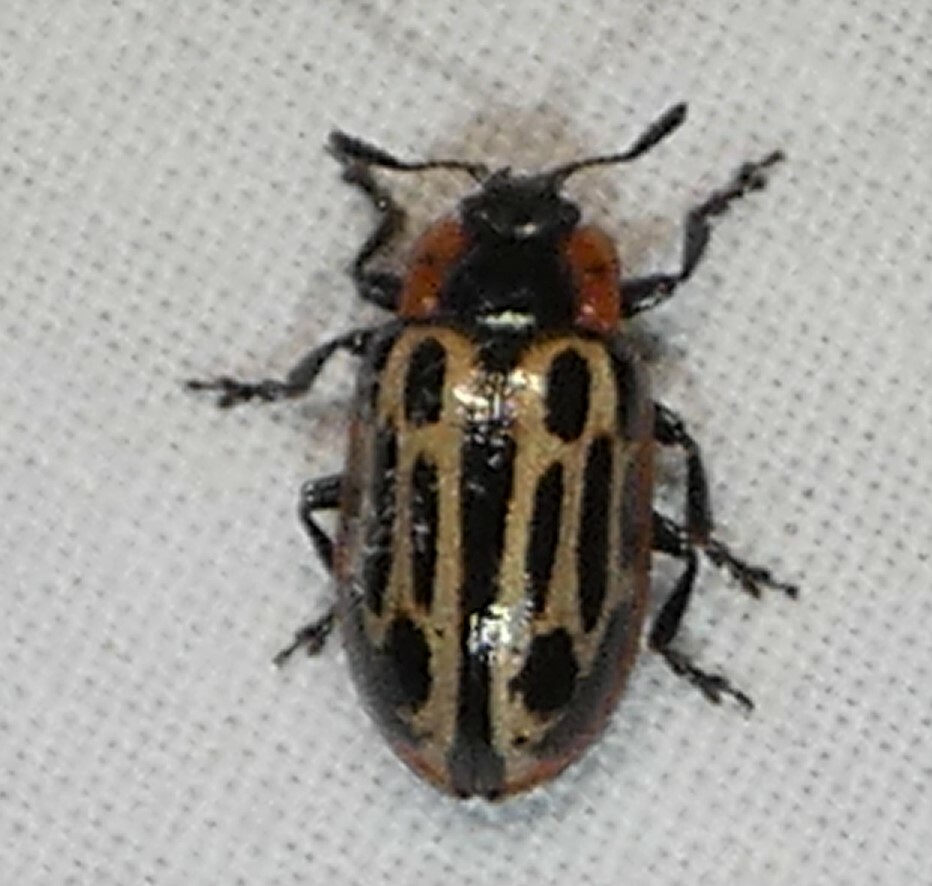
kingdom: Animalia
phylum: Arthropoda
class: Insecta
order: Coleoptera
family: Chrysomelidae
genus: Aethiopocassis
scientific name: Aethiopocassis scripta
